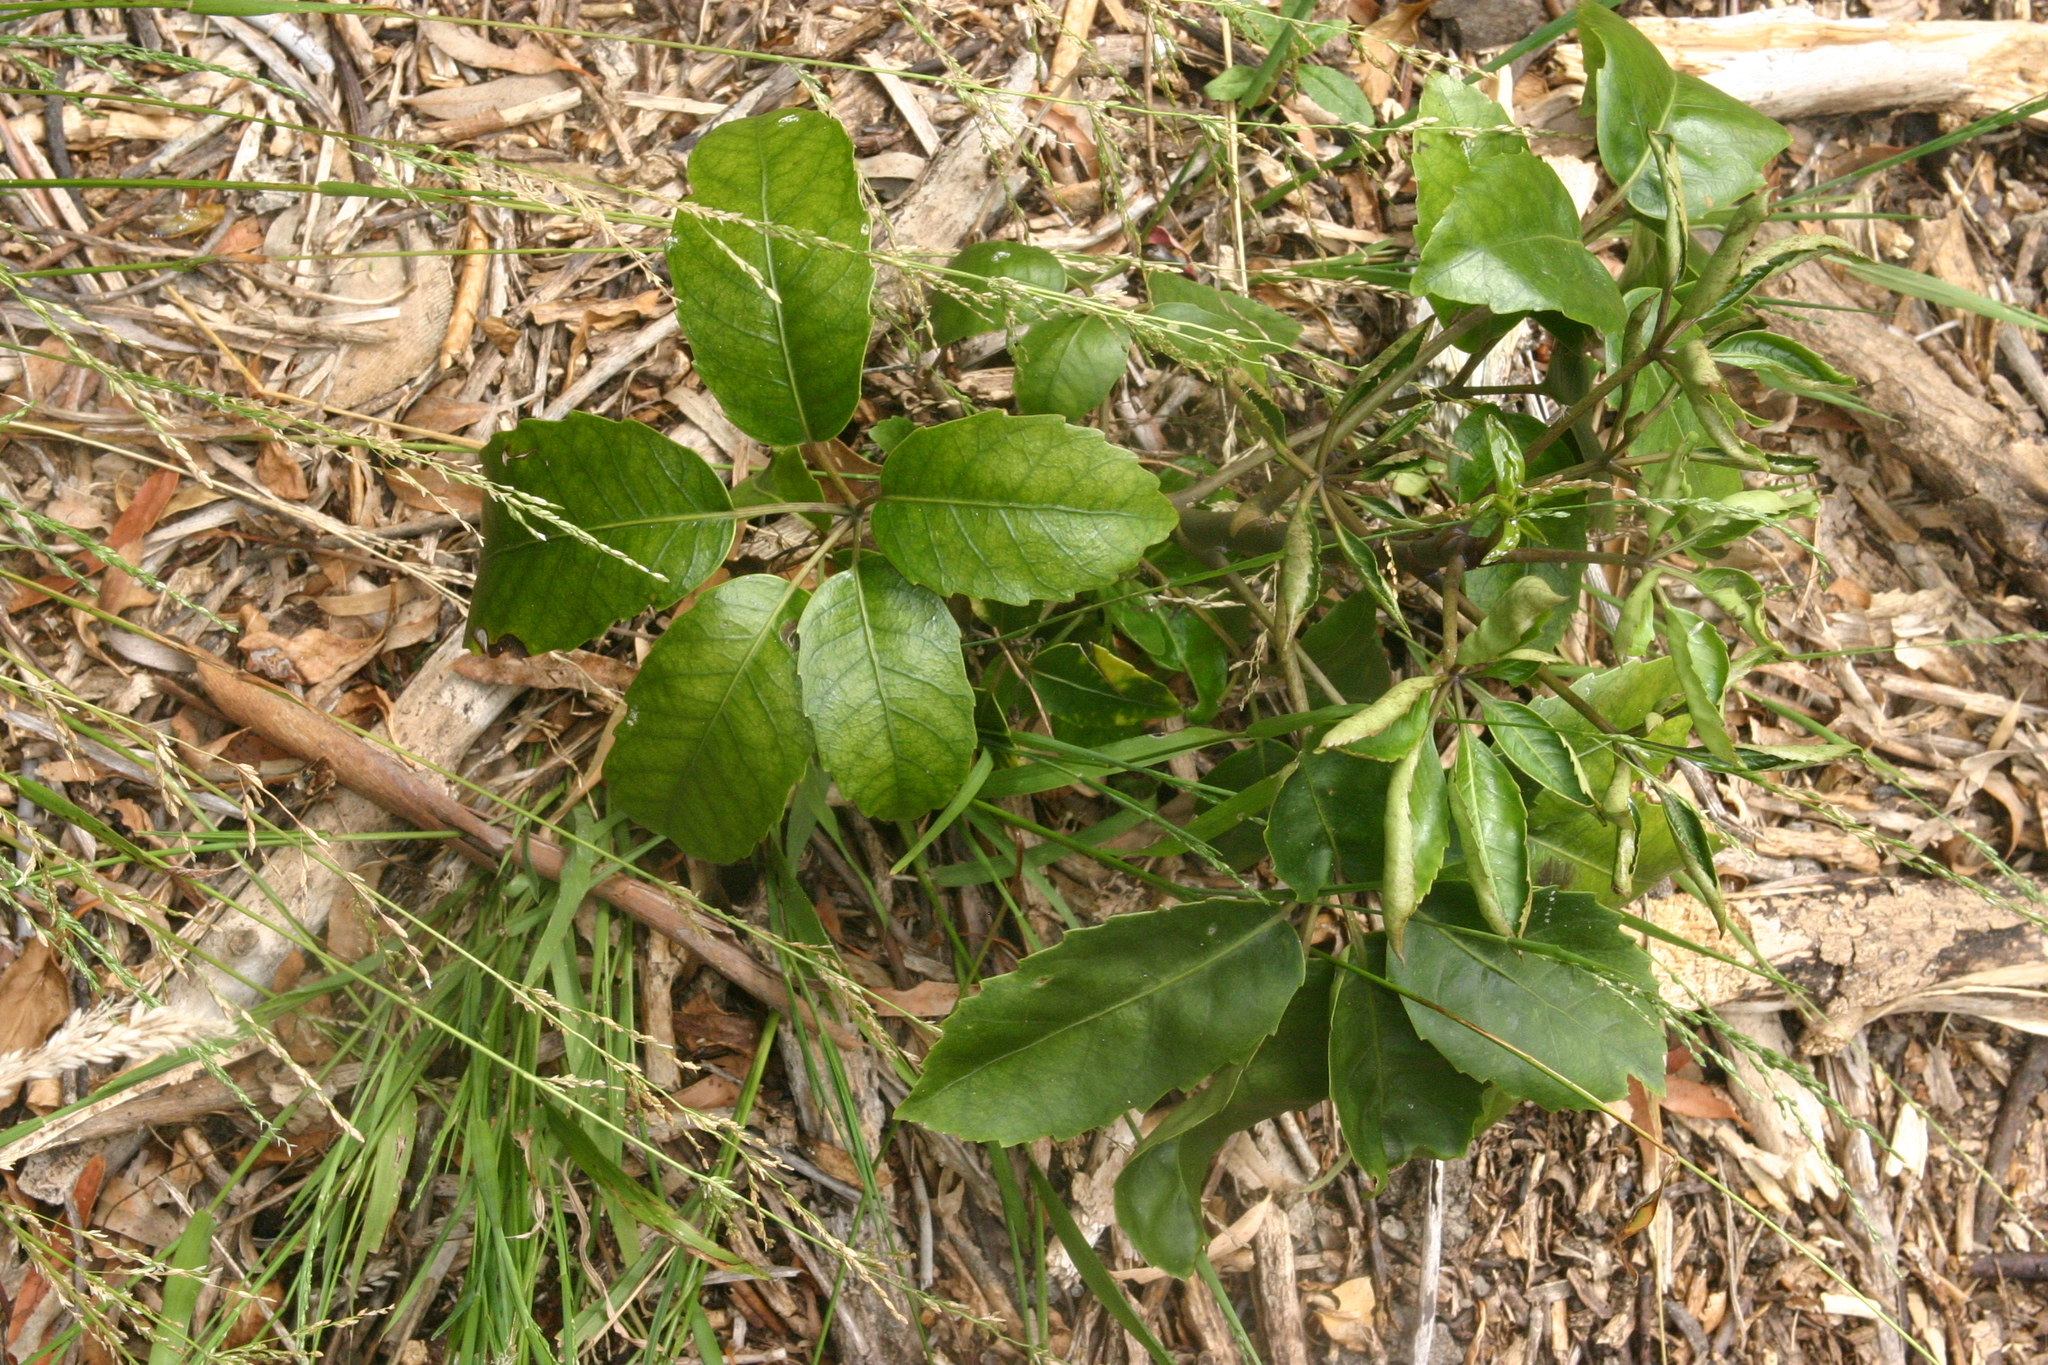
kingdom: Plantae
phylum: Tracheophyta
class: Magnoliopsida
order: Apiales
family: Araliaceae
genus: Neopanax
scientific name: Neopanax arboreus
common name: Five-fingers
